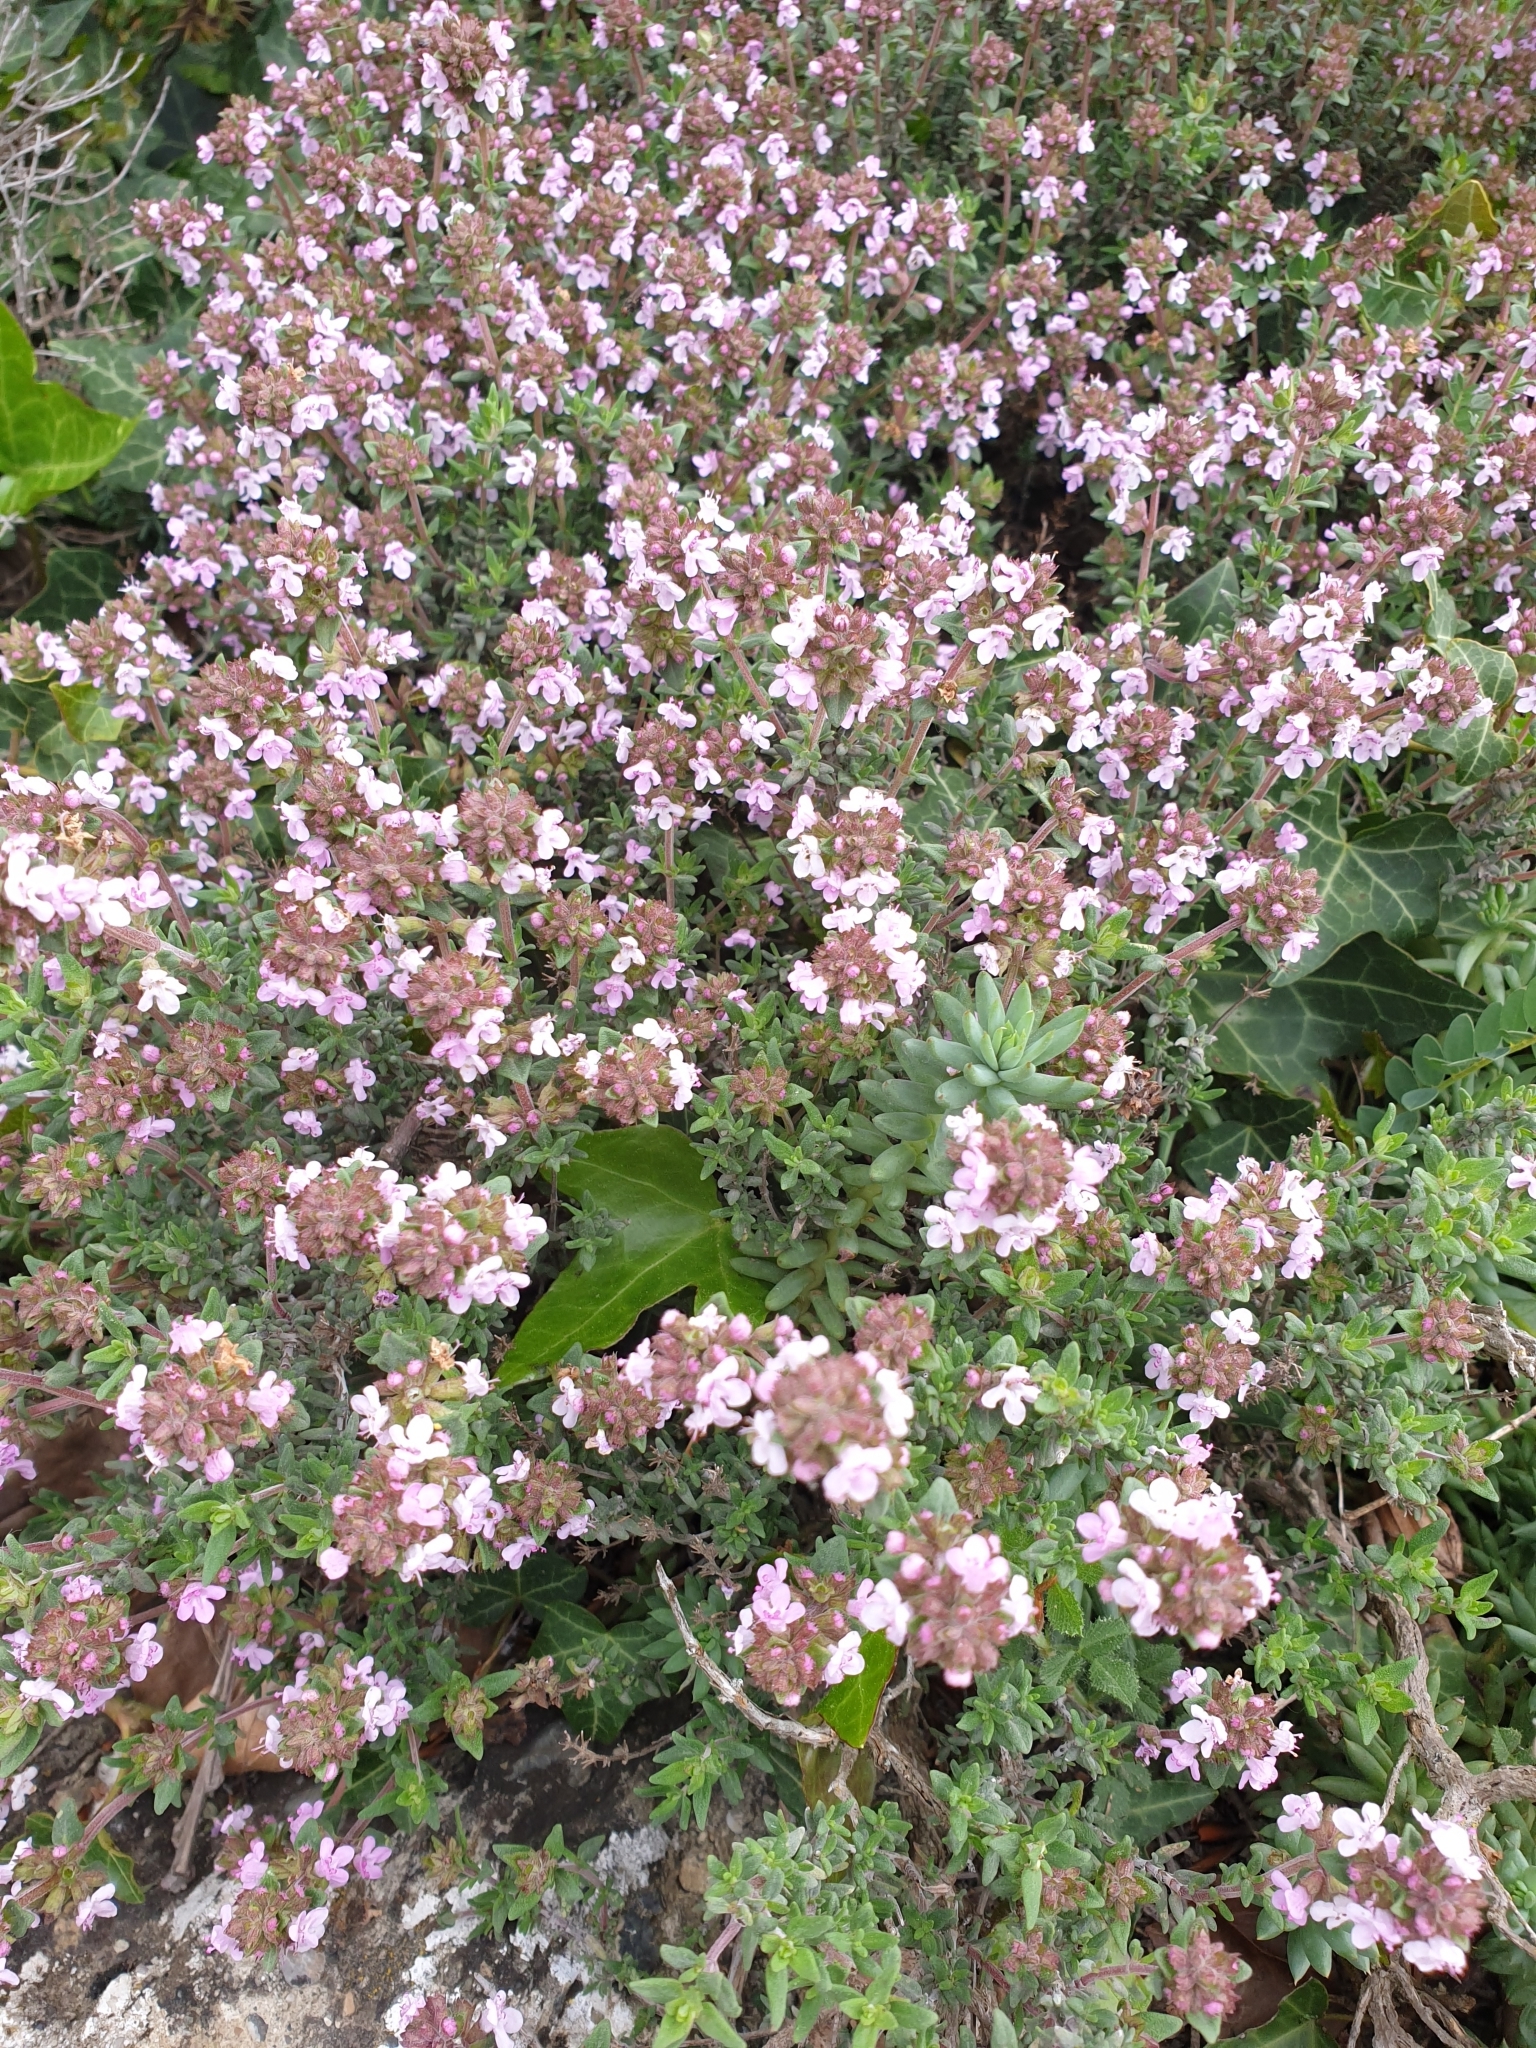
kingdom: Plantae
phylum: Tracheophyta
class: Magnoliopsida
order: Lamiales
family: Lamiaceae
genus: Thymus
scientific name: Thymus vulgaris
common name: Garden thyme
